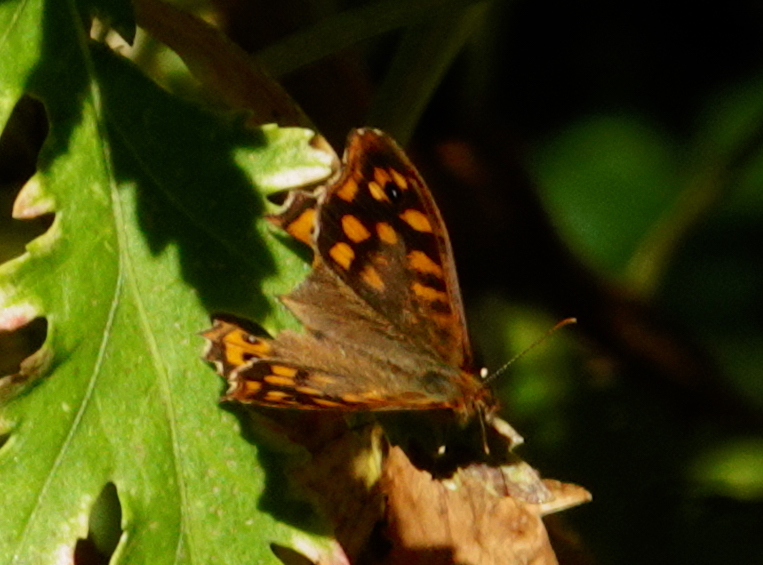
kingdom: Animalia
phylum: Arthropoda
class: Insecta
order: Lepidoptera
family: Nymphalidae
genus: Pararge
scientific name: Pararge aegeria
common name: Speckled wood
